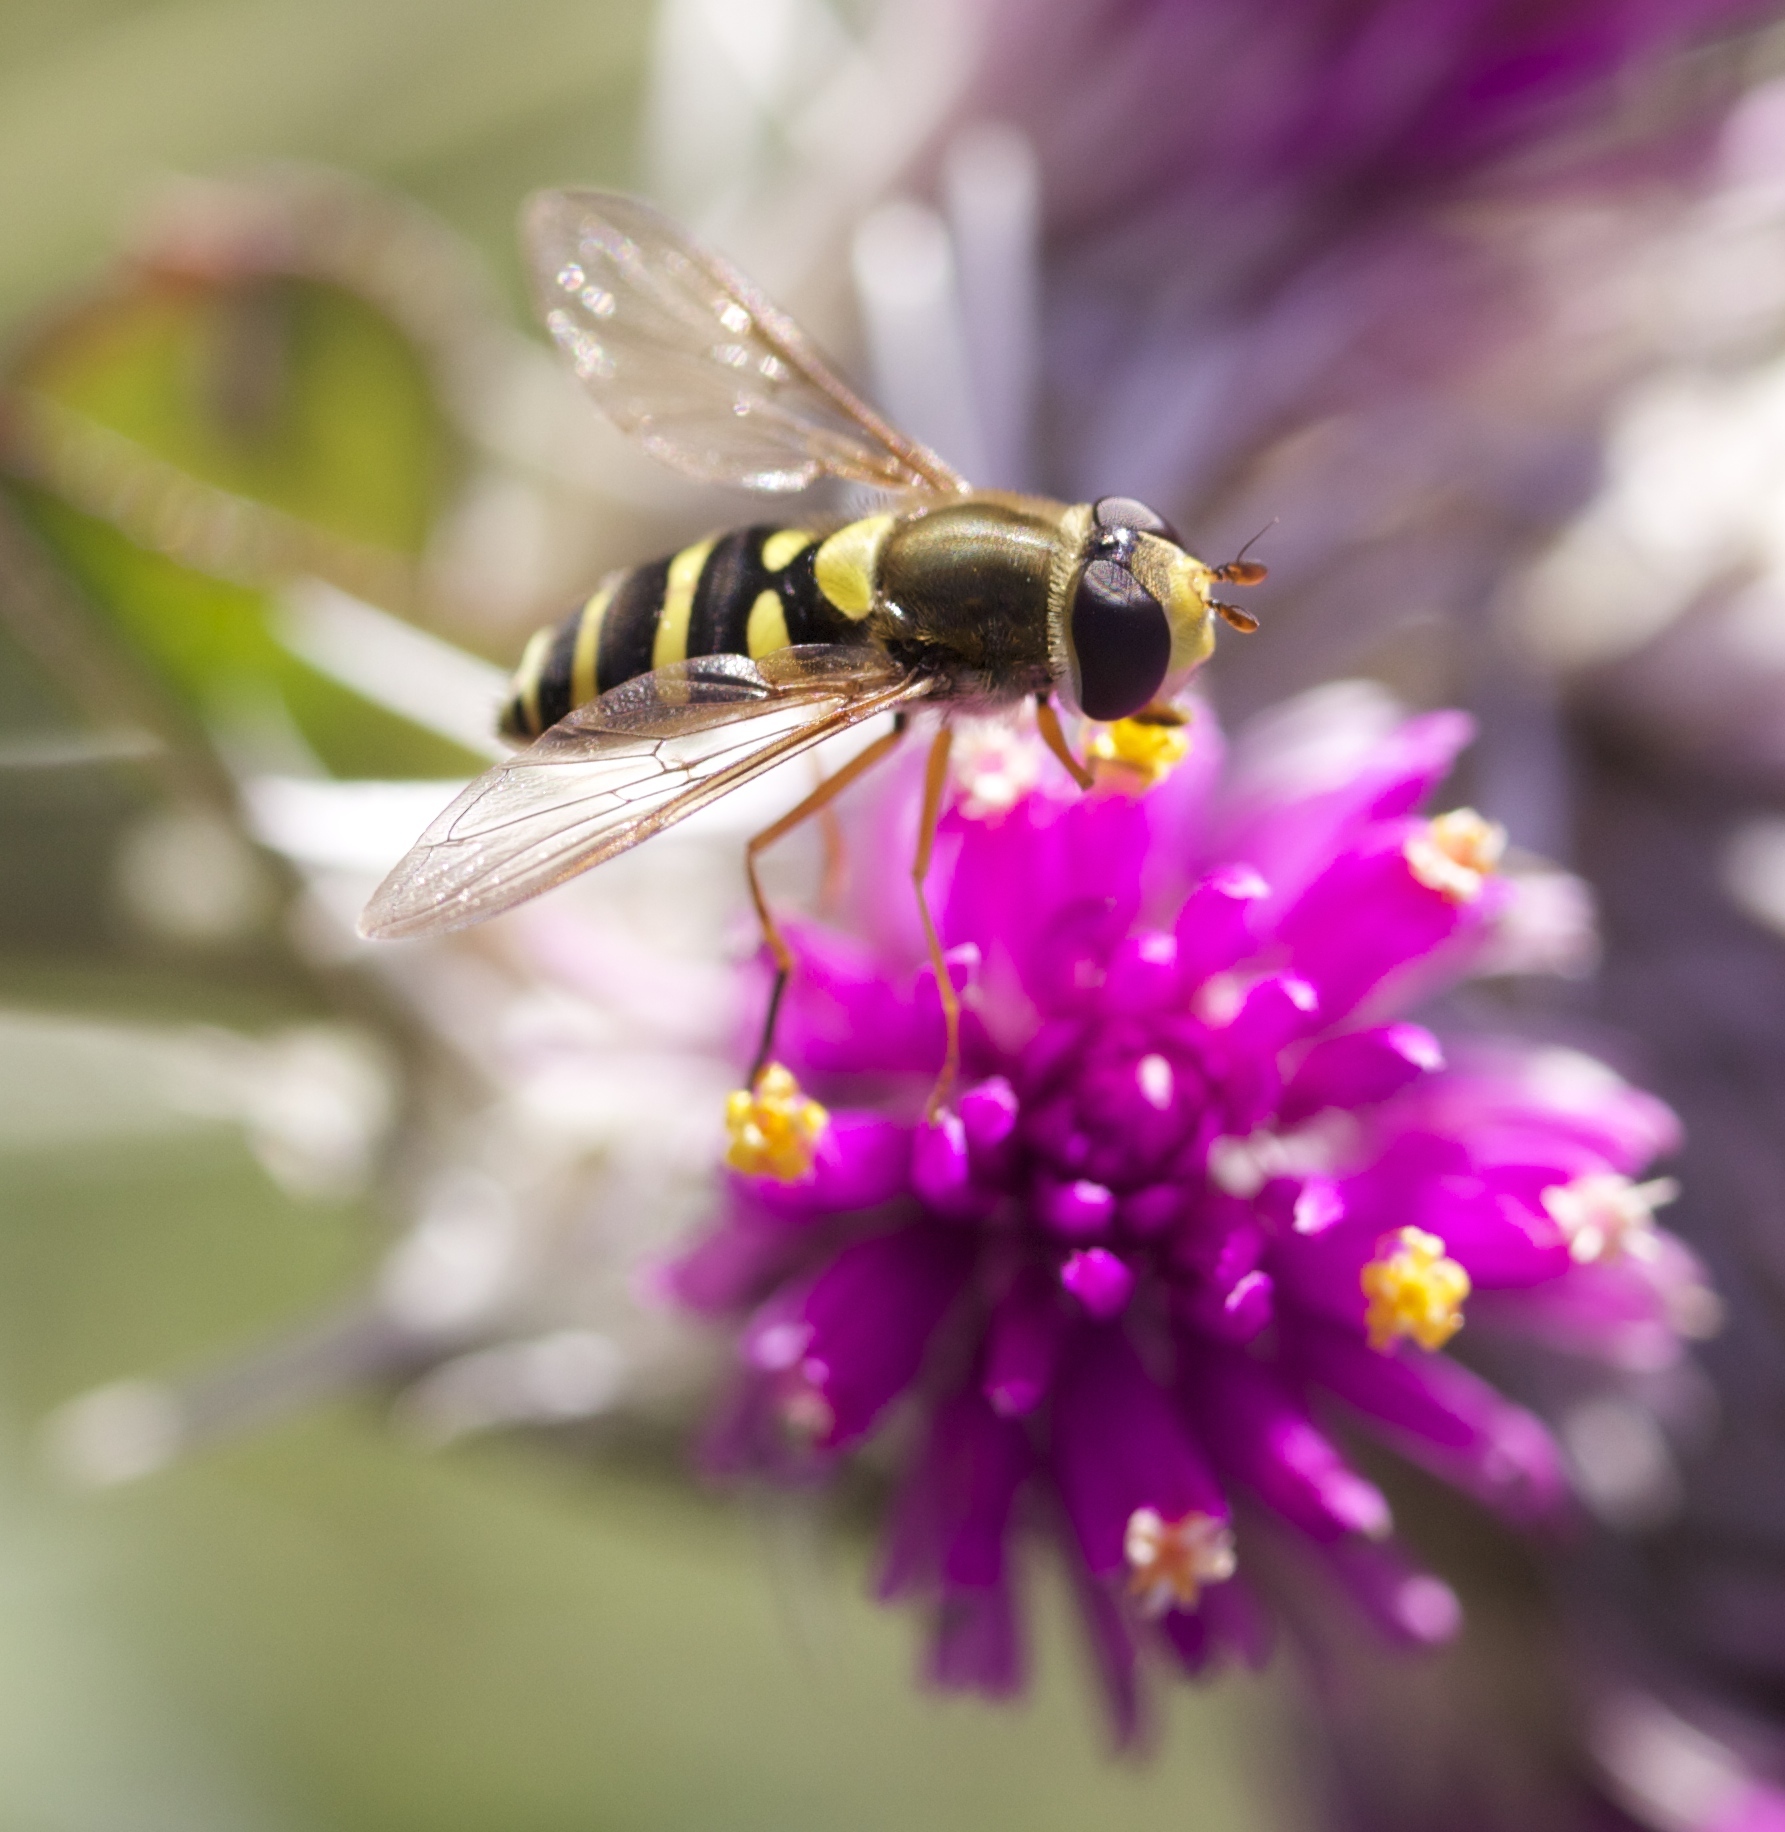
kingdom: Animalia
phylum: Arthropoda
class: Insecta
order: Diptera
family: Syrphidae
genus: Syrphus
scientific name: Syrphus opinator
